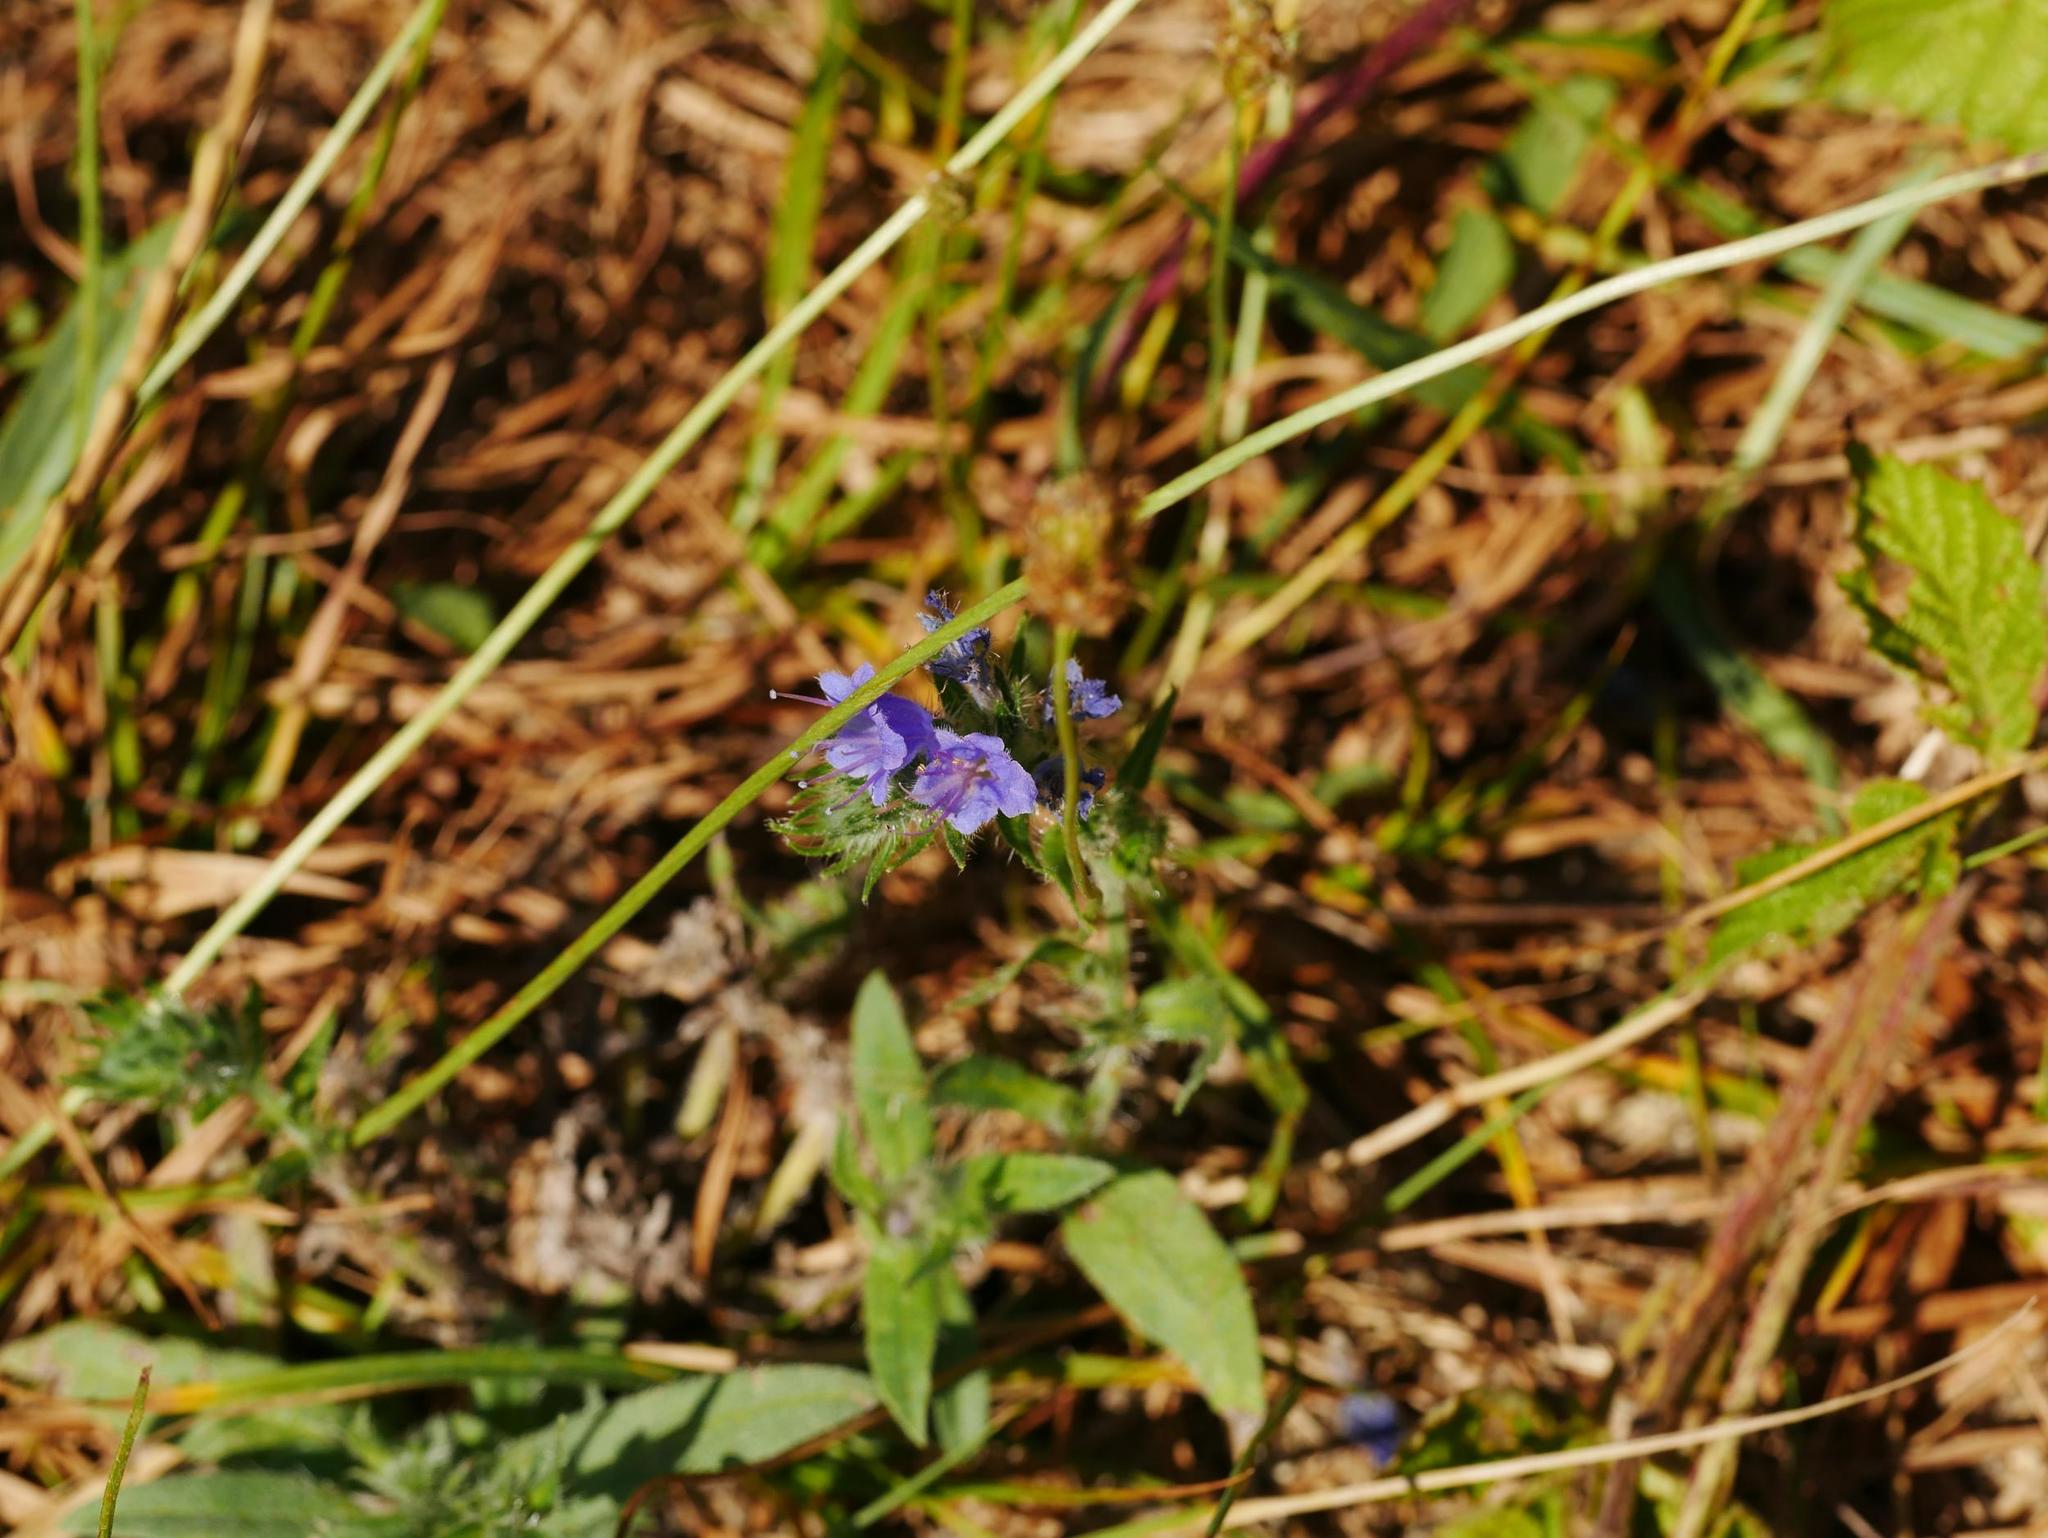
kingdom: Plantae
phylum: Tracheophyta
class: Magnoliopsida
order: Boraginales
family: Boraginaceae
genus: Echium
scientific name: Echium vulgare
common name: Common viper's bugloss
